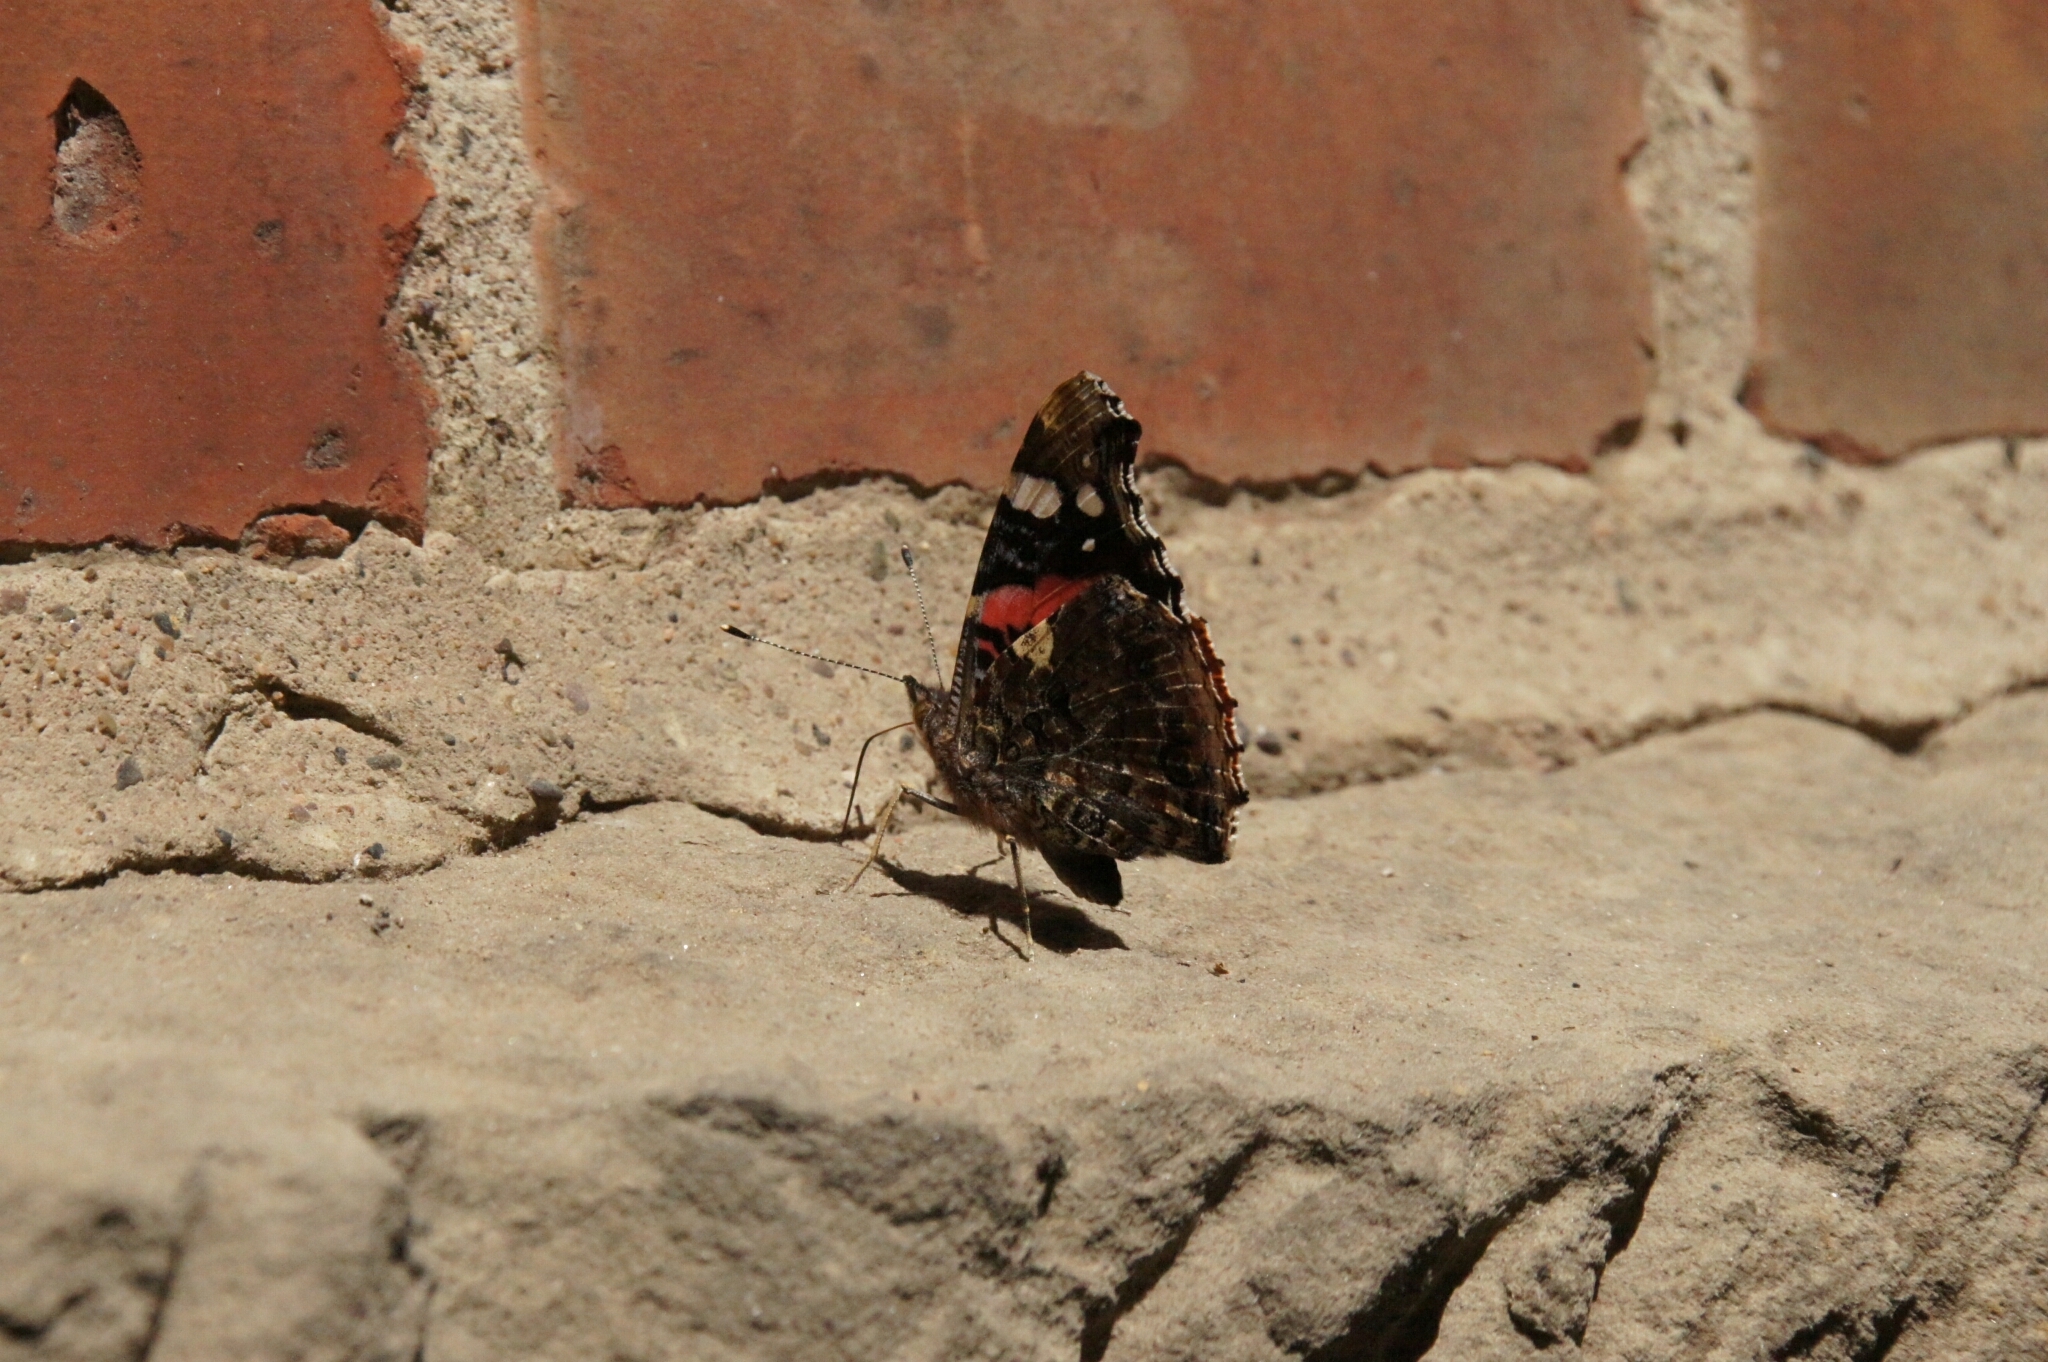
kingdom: Animalia
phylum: Arthropoda
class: Insecta
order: Lepidoptera
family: Nymphalidae
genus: Vanessa
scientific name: Vanessa atalanta
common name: Red admiral
